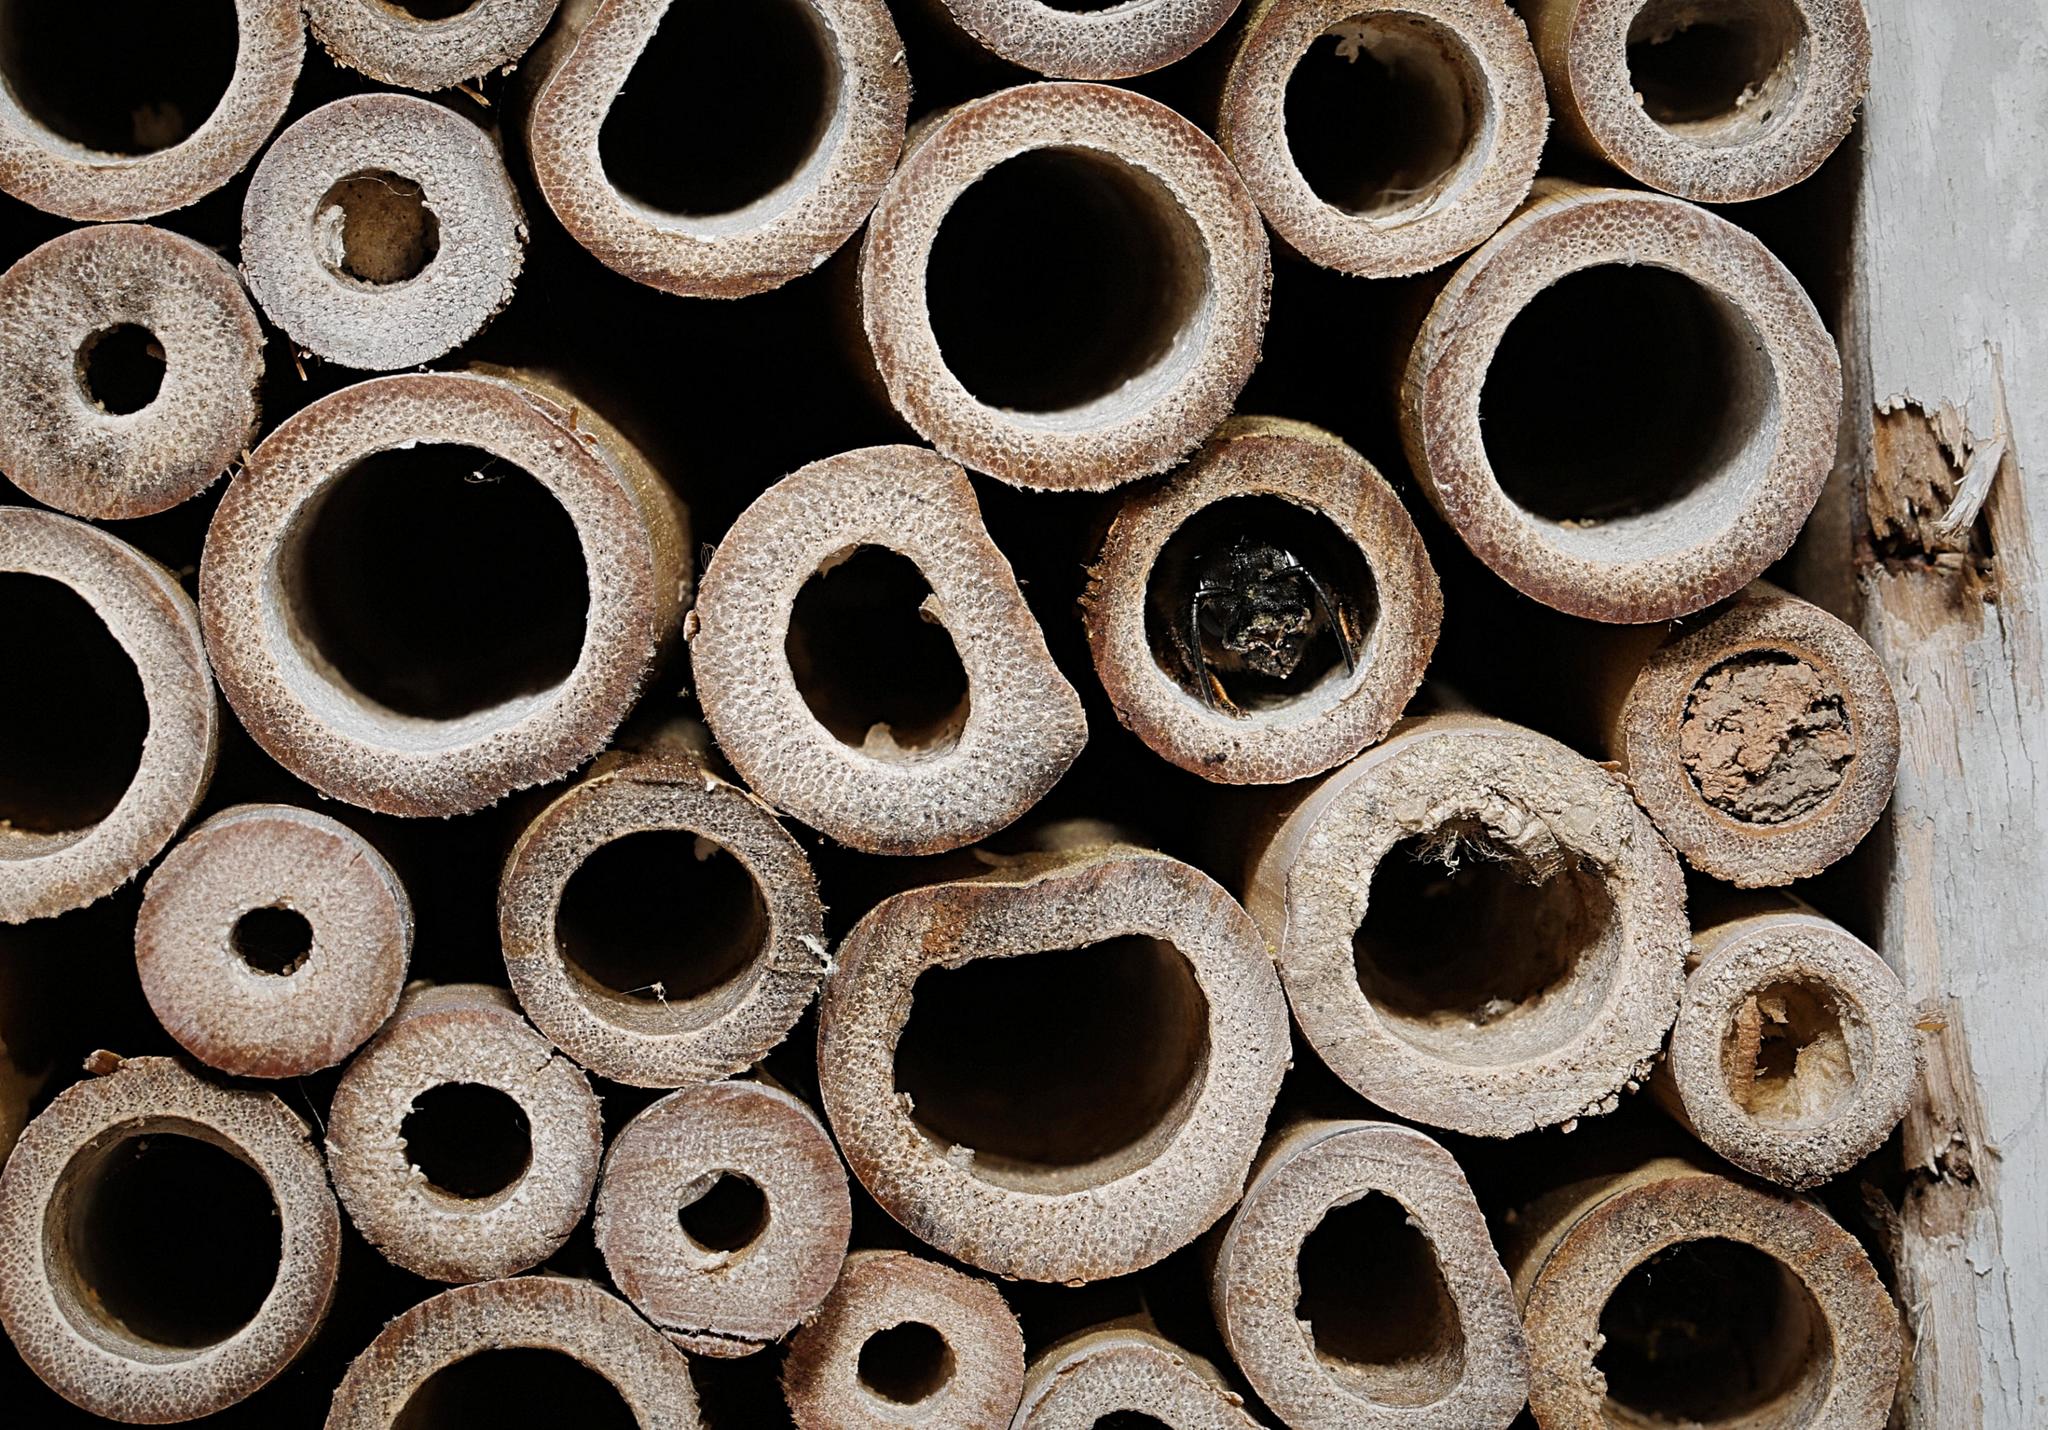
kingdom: Animalia
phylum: Arthropoda
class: Insecta
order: Hymenoptera
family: Megachilidae
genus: Osmia
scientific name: Osmia bicornis
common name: Red mason bee
